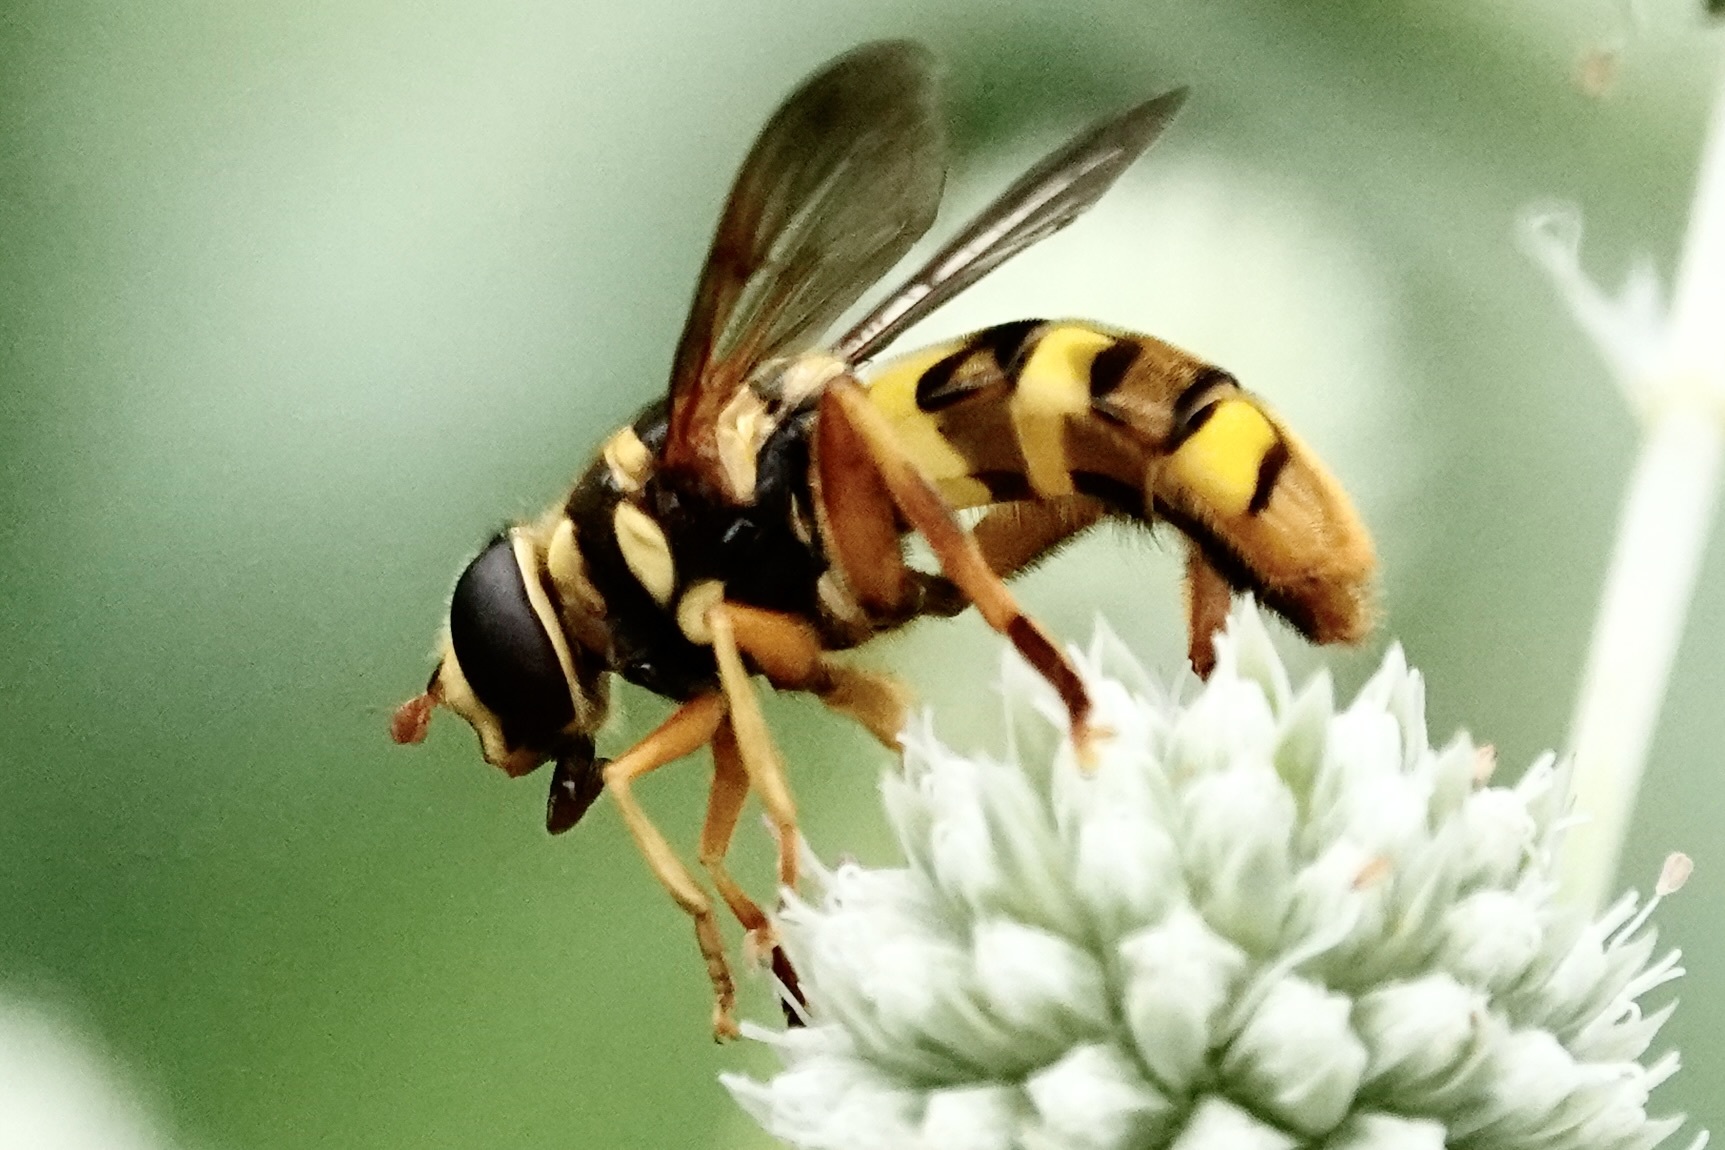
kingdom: Animalia
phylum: Arthropoda
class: Insecta
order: Diptera
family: Syrphidae
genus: Milesia
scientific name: Milesia virginiensis
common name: Virginia giant
